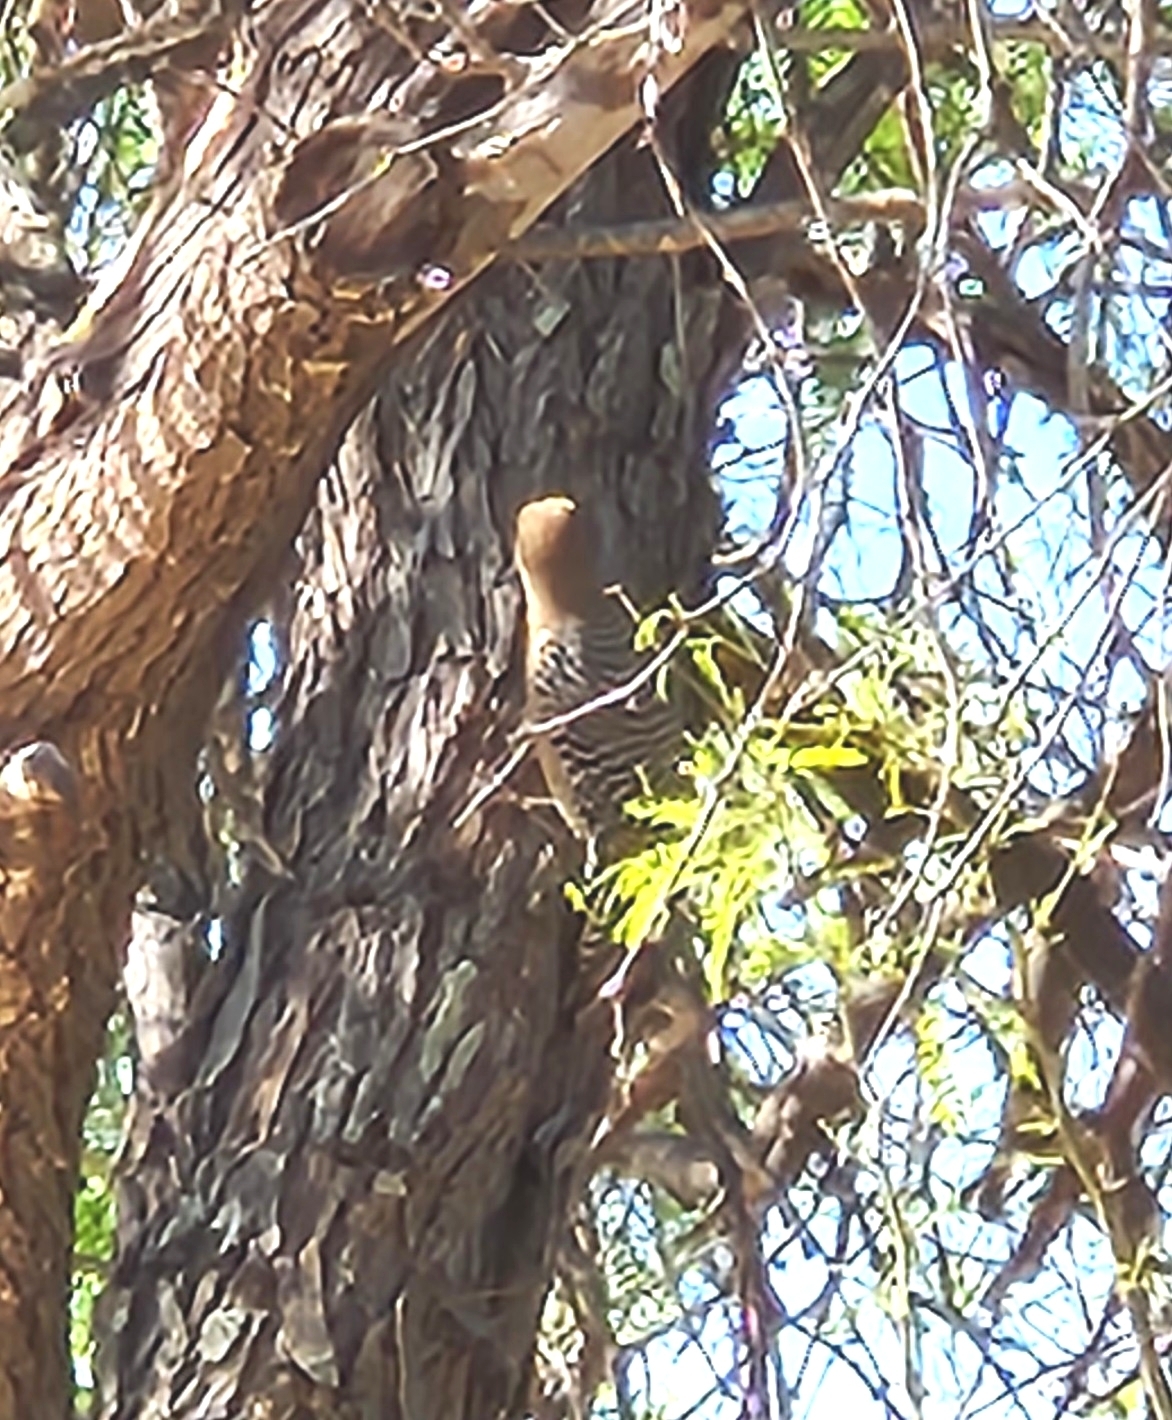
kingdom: Animalia
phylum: Chordata
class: Aves
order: Piciformes
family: Picidae
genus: Melanerpes
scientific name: Melanerpes uropygialis
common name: Gila woodpecker
